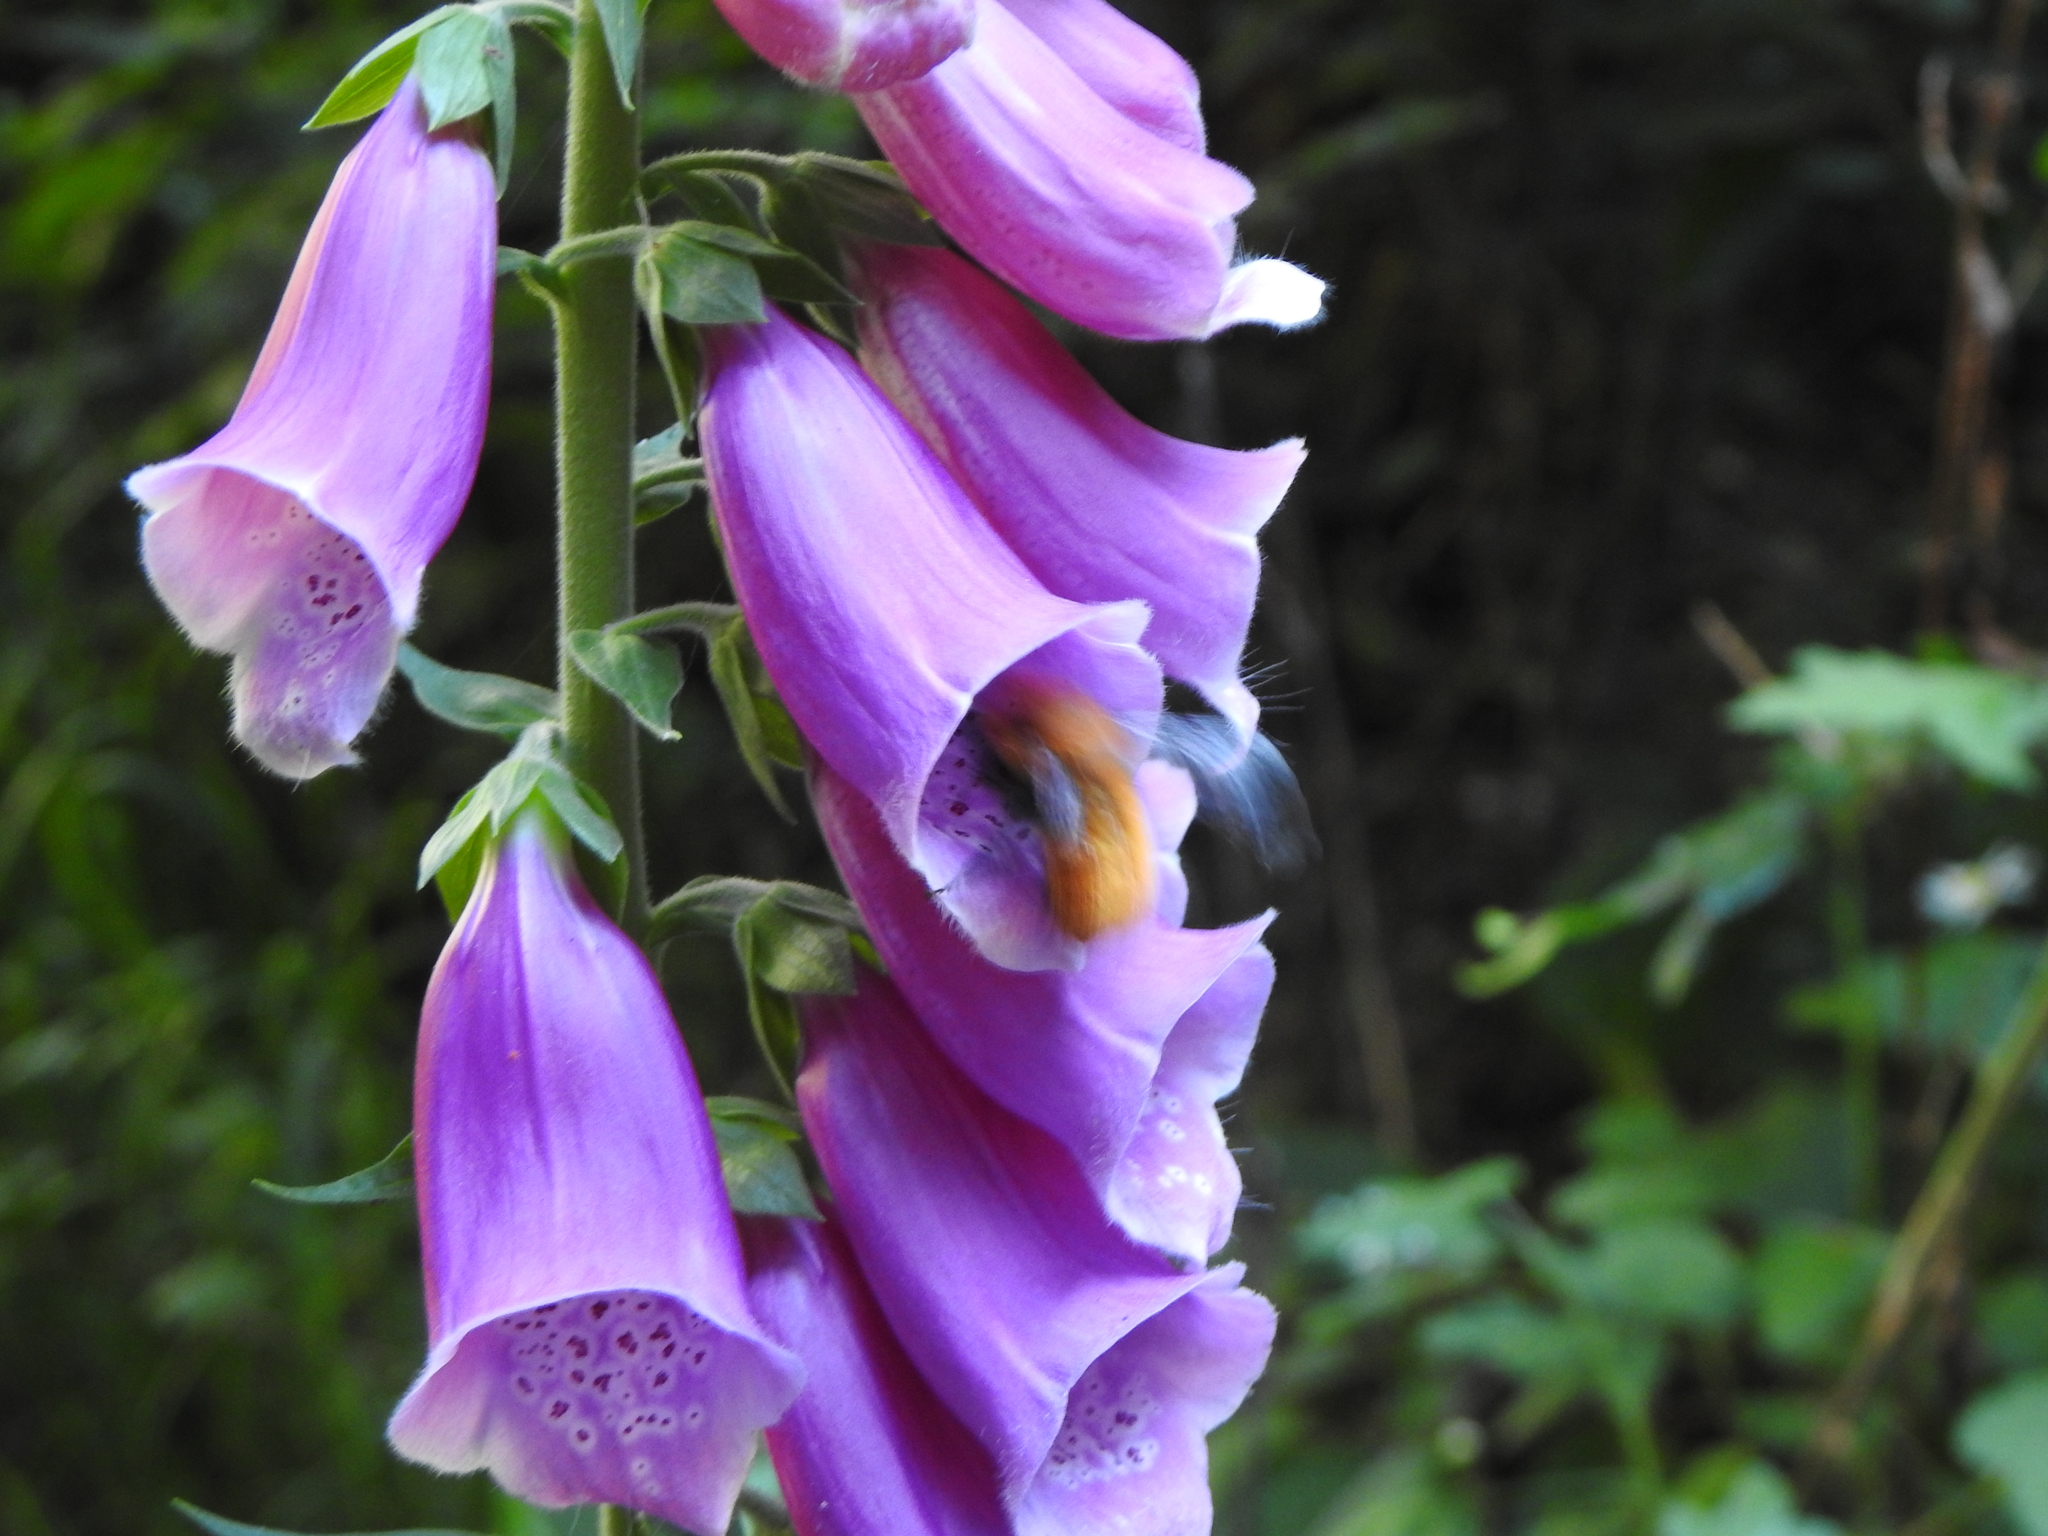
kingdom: Plantae
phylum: Tracheophyta
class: Magnoliopsida
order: Lamiales
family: Plantaginaceae
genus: Digitalis
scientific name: Digitalis purpurea
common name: Foxglove
